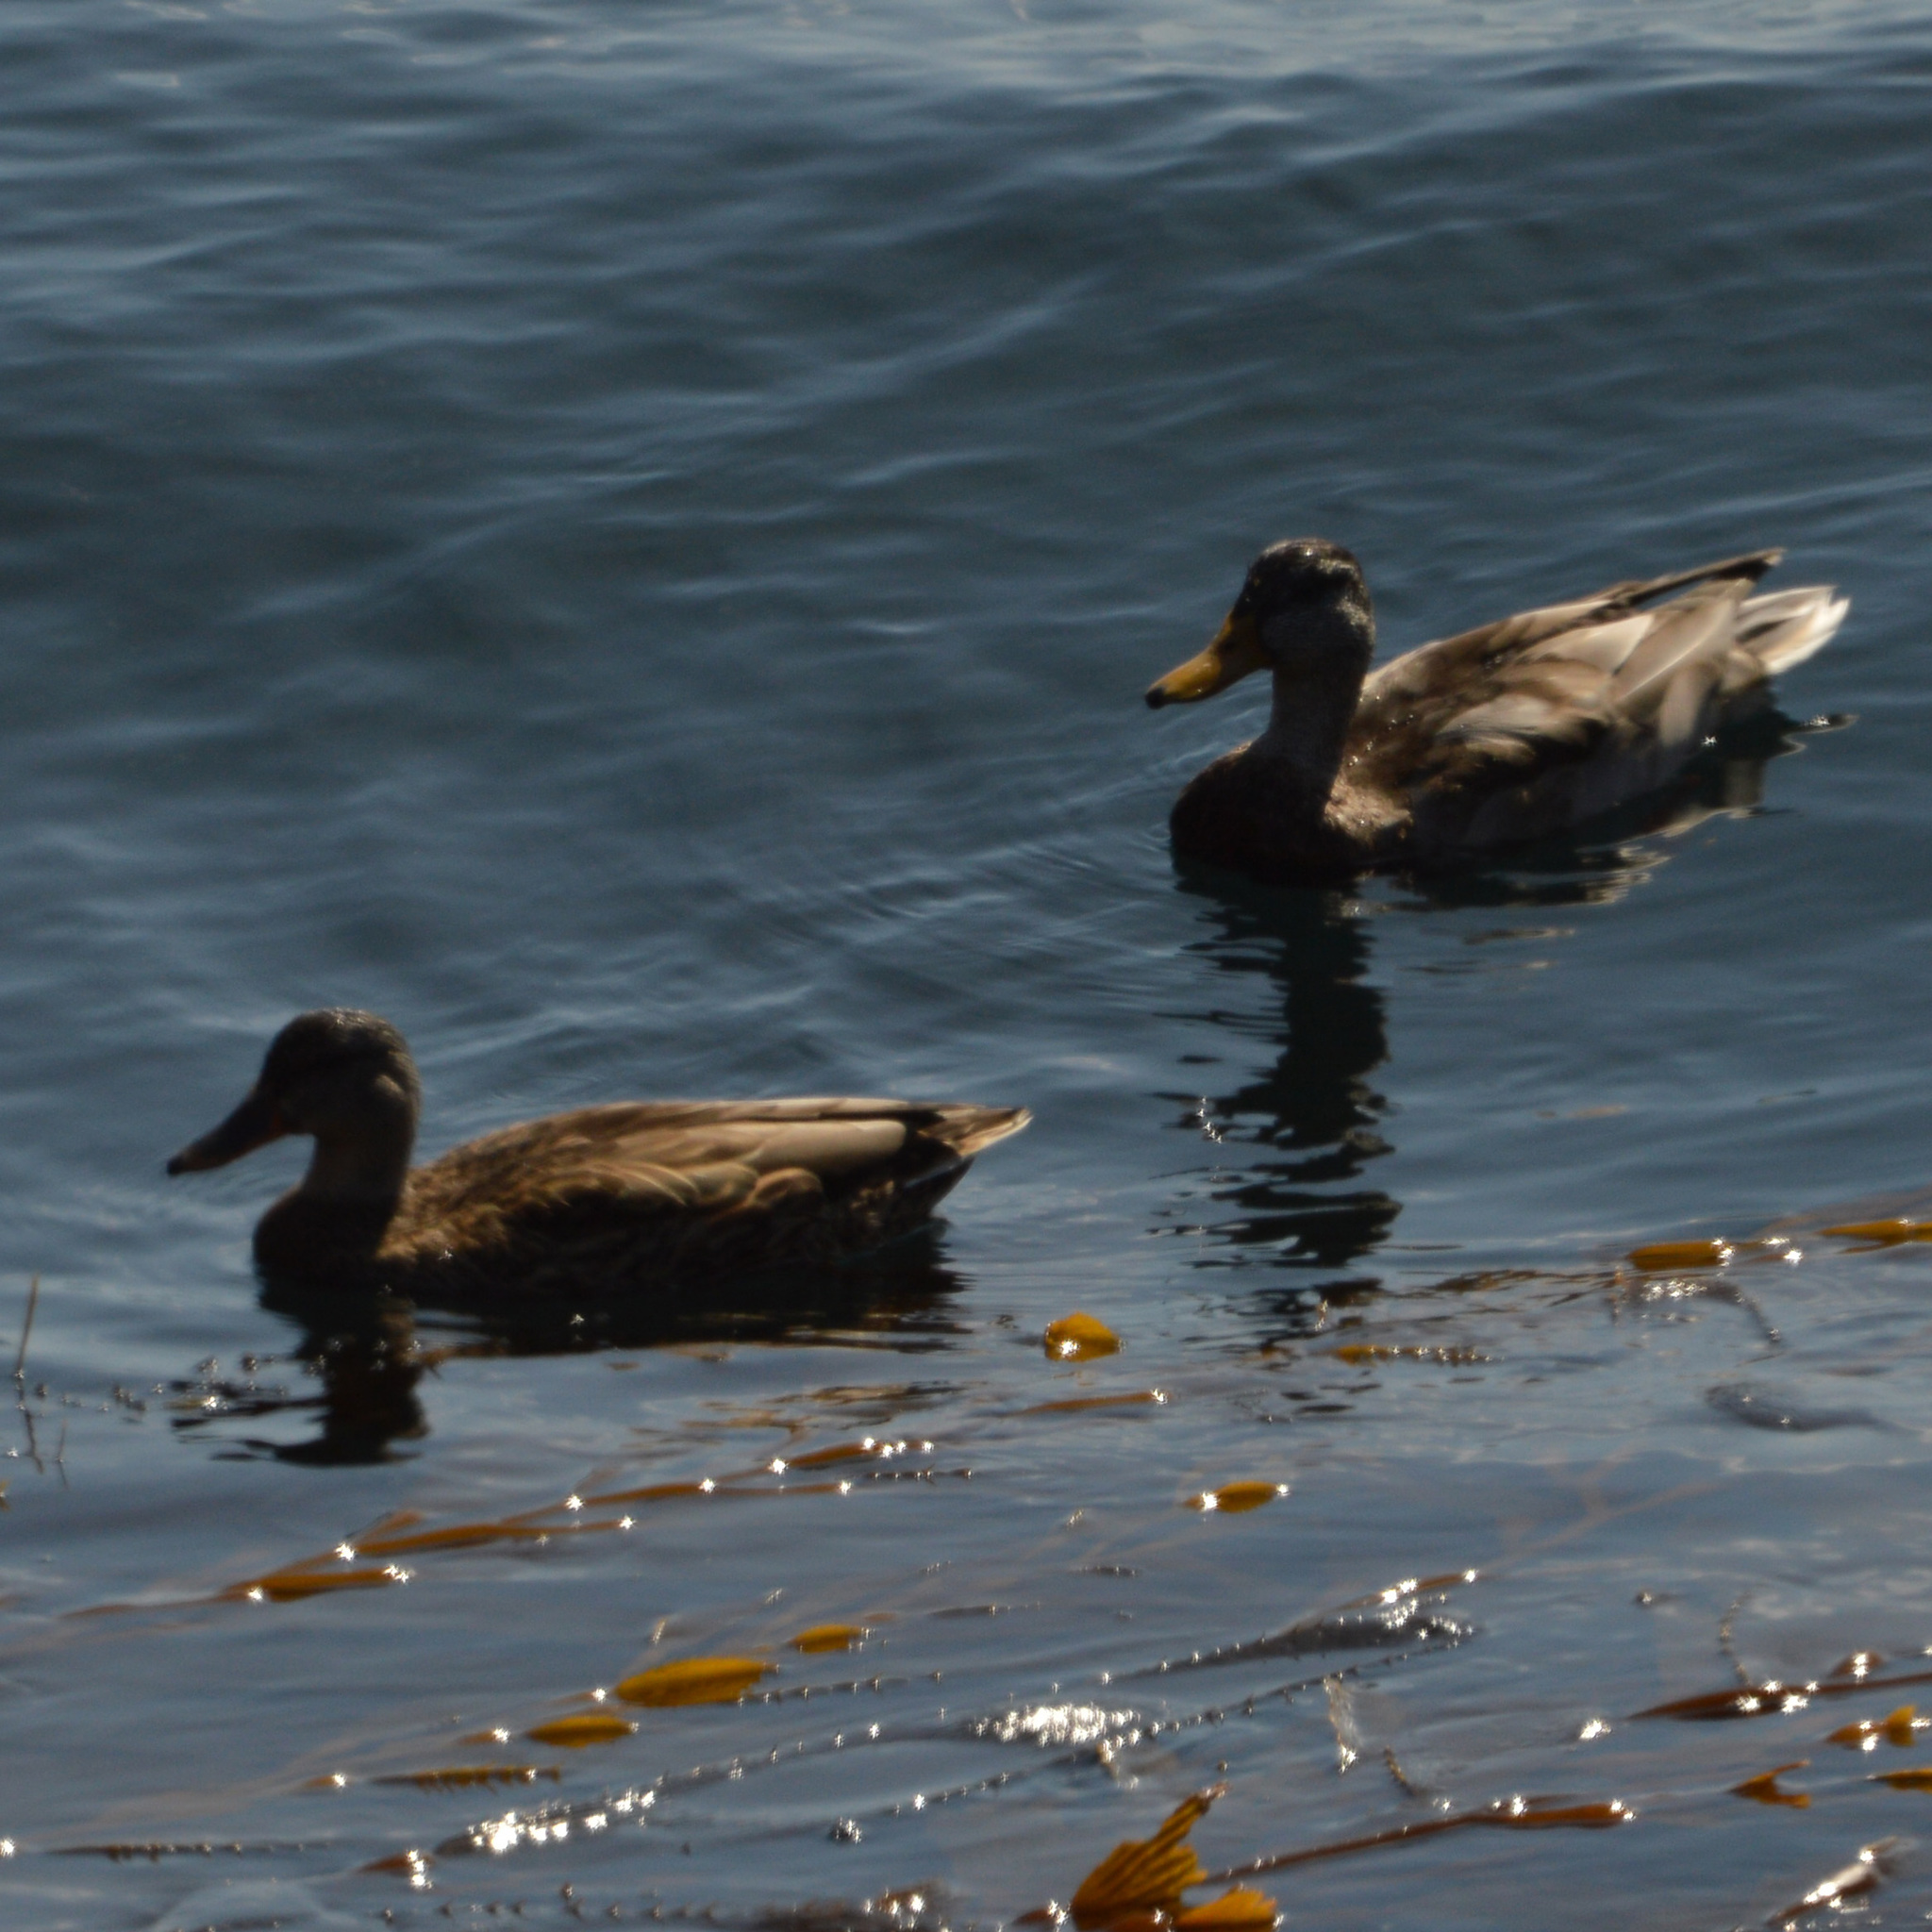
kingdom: Animalia
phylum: Chordata
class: Aves
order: Anseriformes
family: Anatidae
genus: Anas
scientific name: Anas platyrhynchos
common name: Mallard
